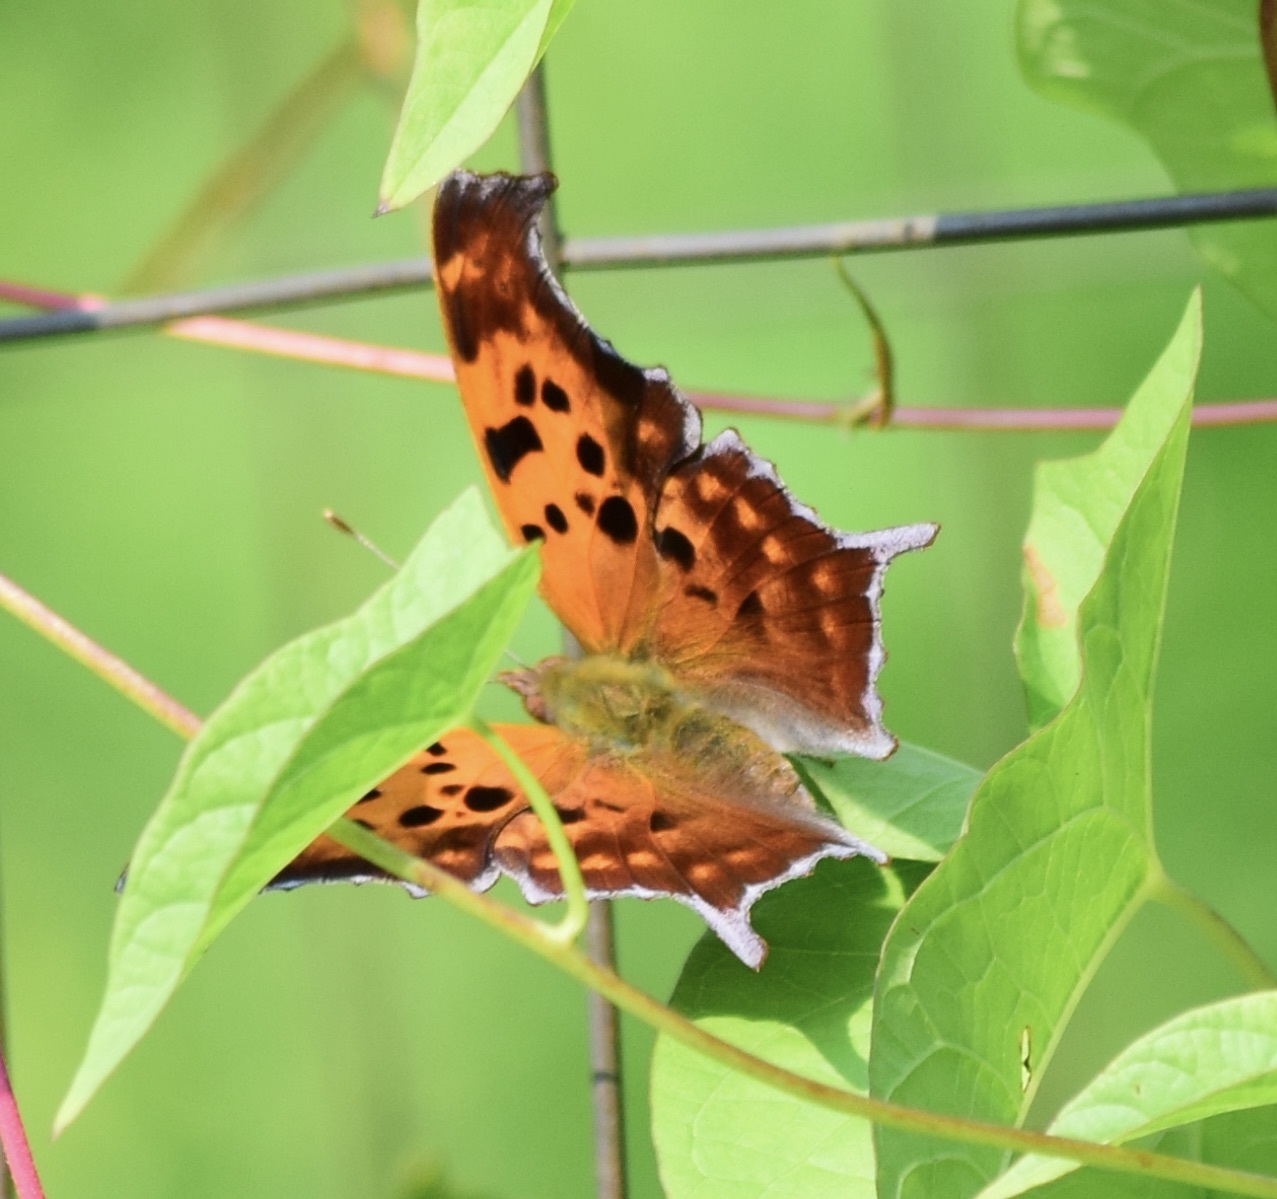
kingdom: Animalia
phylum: Arthropoda
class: Insecta
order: Lepidoptera
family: Nymphalidae
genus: Polygonia
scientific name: Polygonia interrogationis
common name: Question mark
